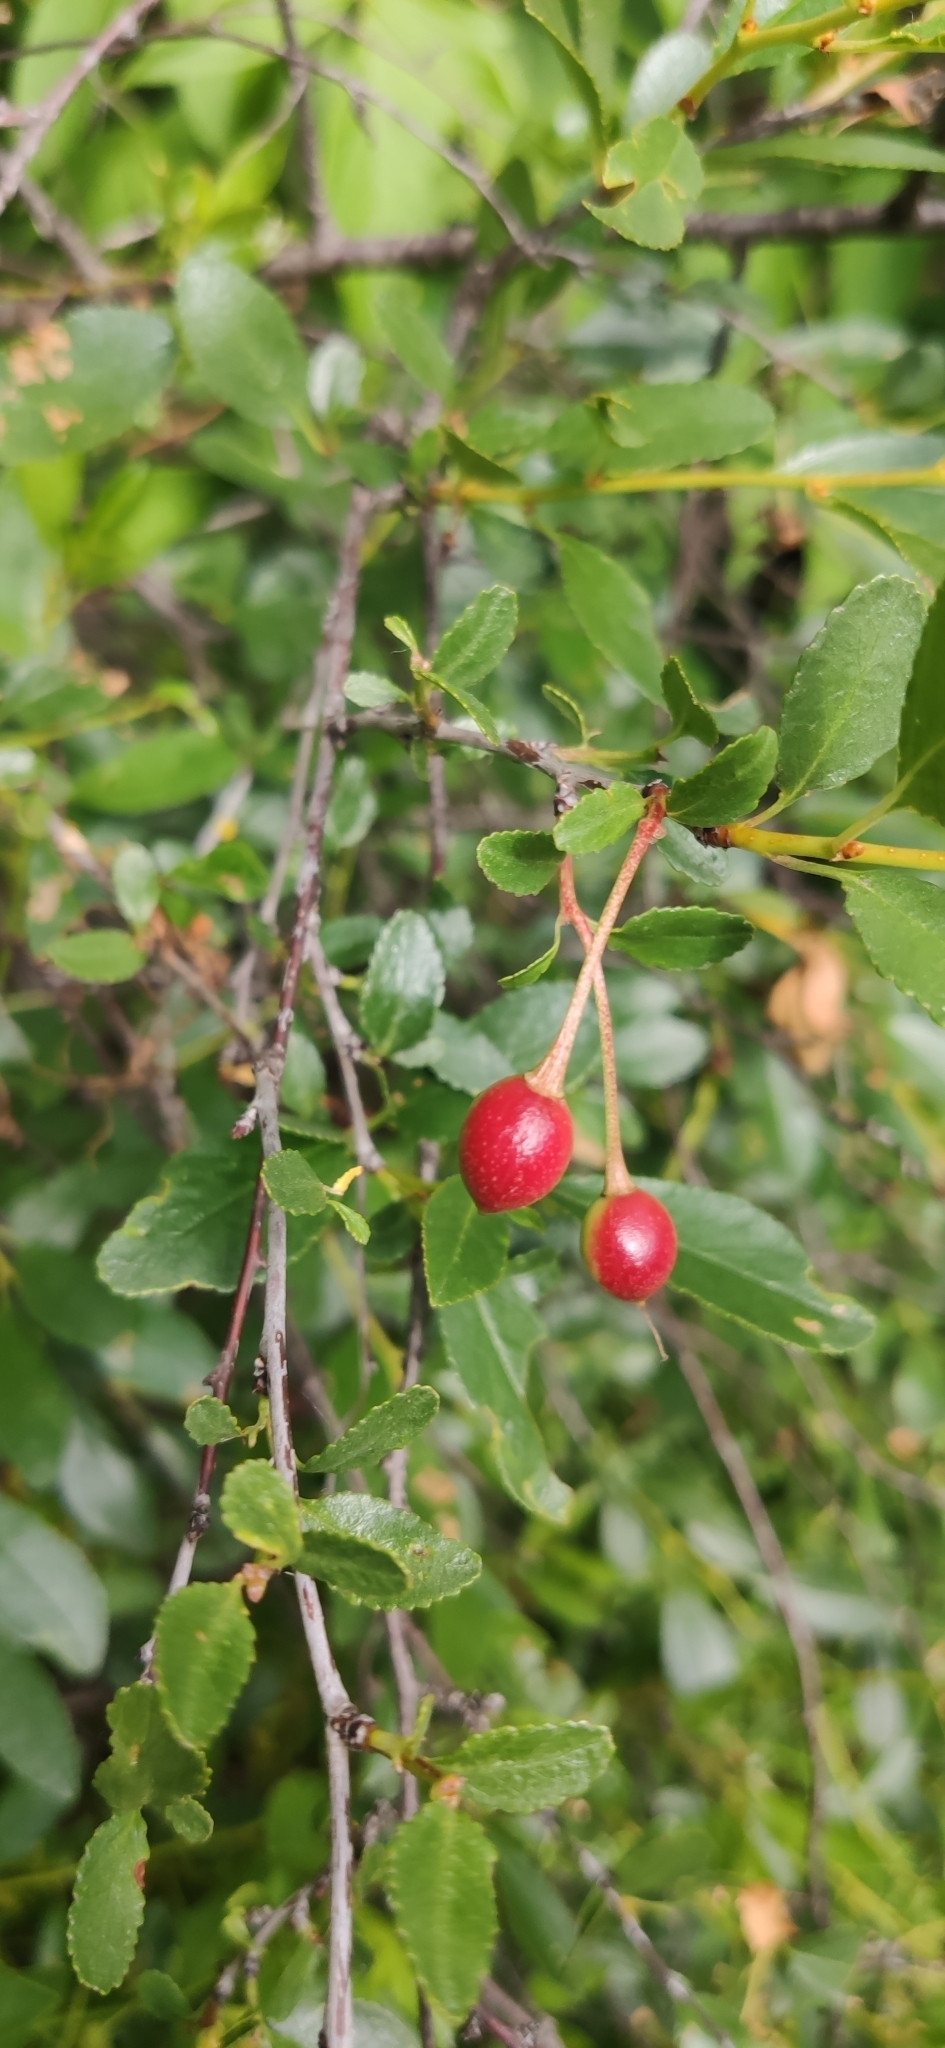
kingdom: Plantae
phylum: Tracheophyta
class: Magnoliopsida
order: Rosales
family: Rosaceae
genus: Prunus
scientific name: Prunus fruticosa
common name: European dwarf cherry
